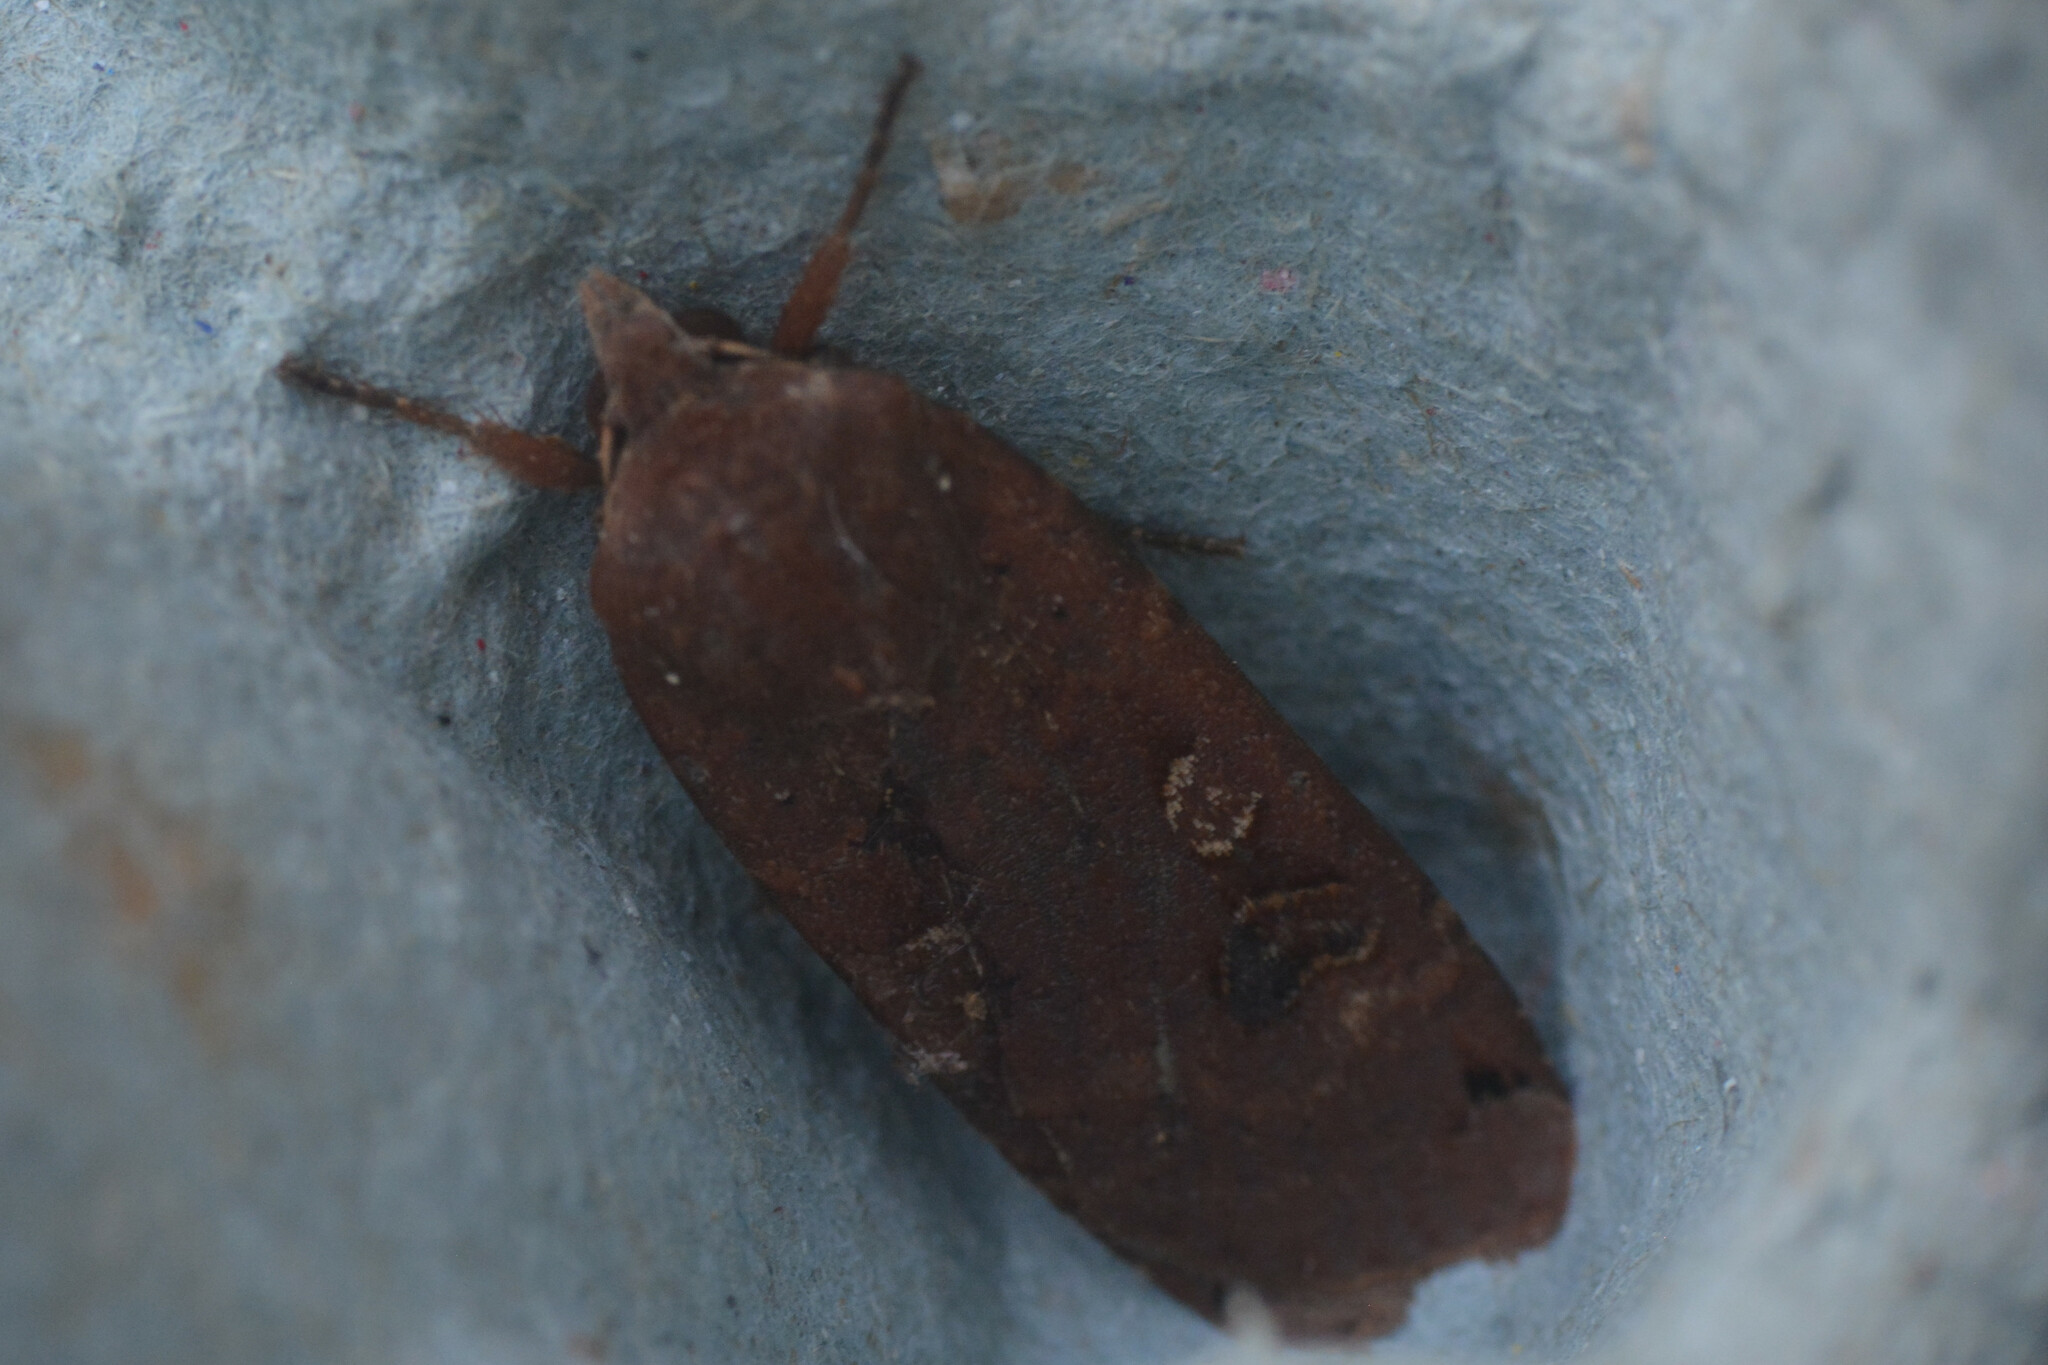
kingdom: Animalia
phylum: Arthropoda
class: Insecta
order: Lepidoptera
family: Noctuidae
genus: Noctua
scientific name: Noctua pronuba
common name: Large yellow underwing
